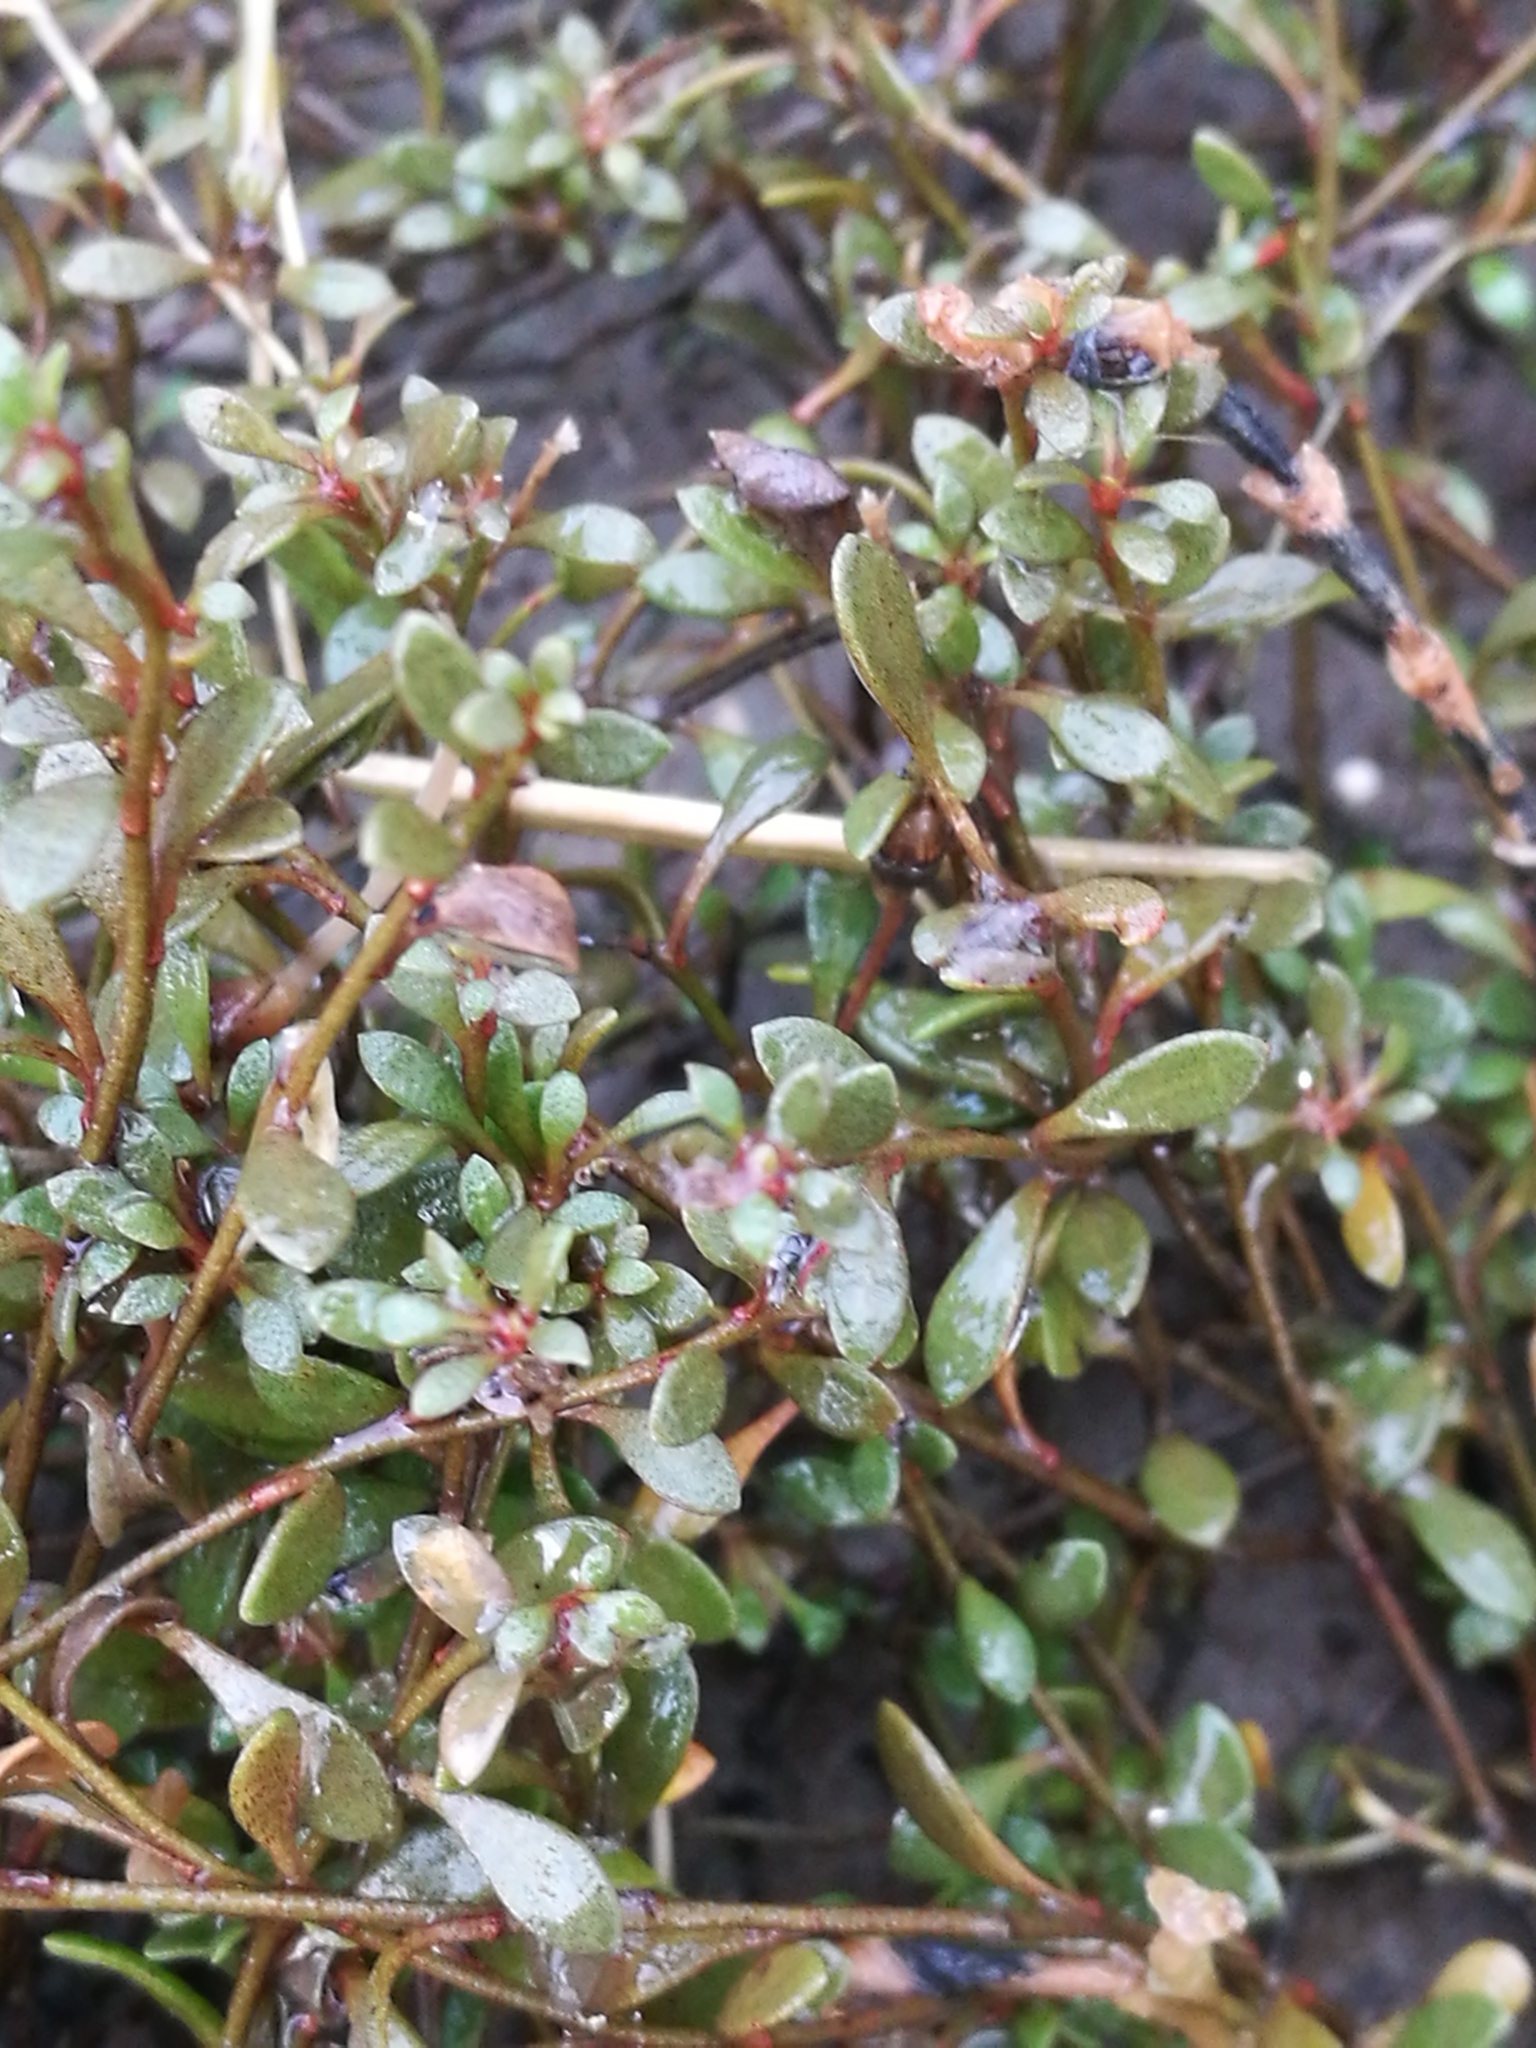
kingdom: Plantae
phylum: Tracheophyta
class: Magnoliopsida
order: Ericales
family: Primulaceae
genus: Samolus
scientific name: Samolus repens
